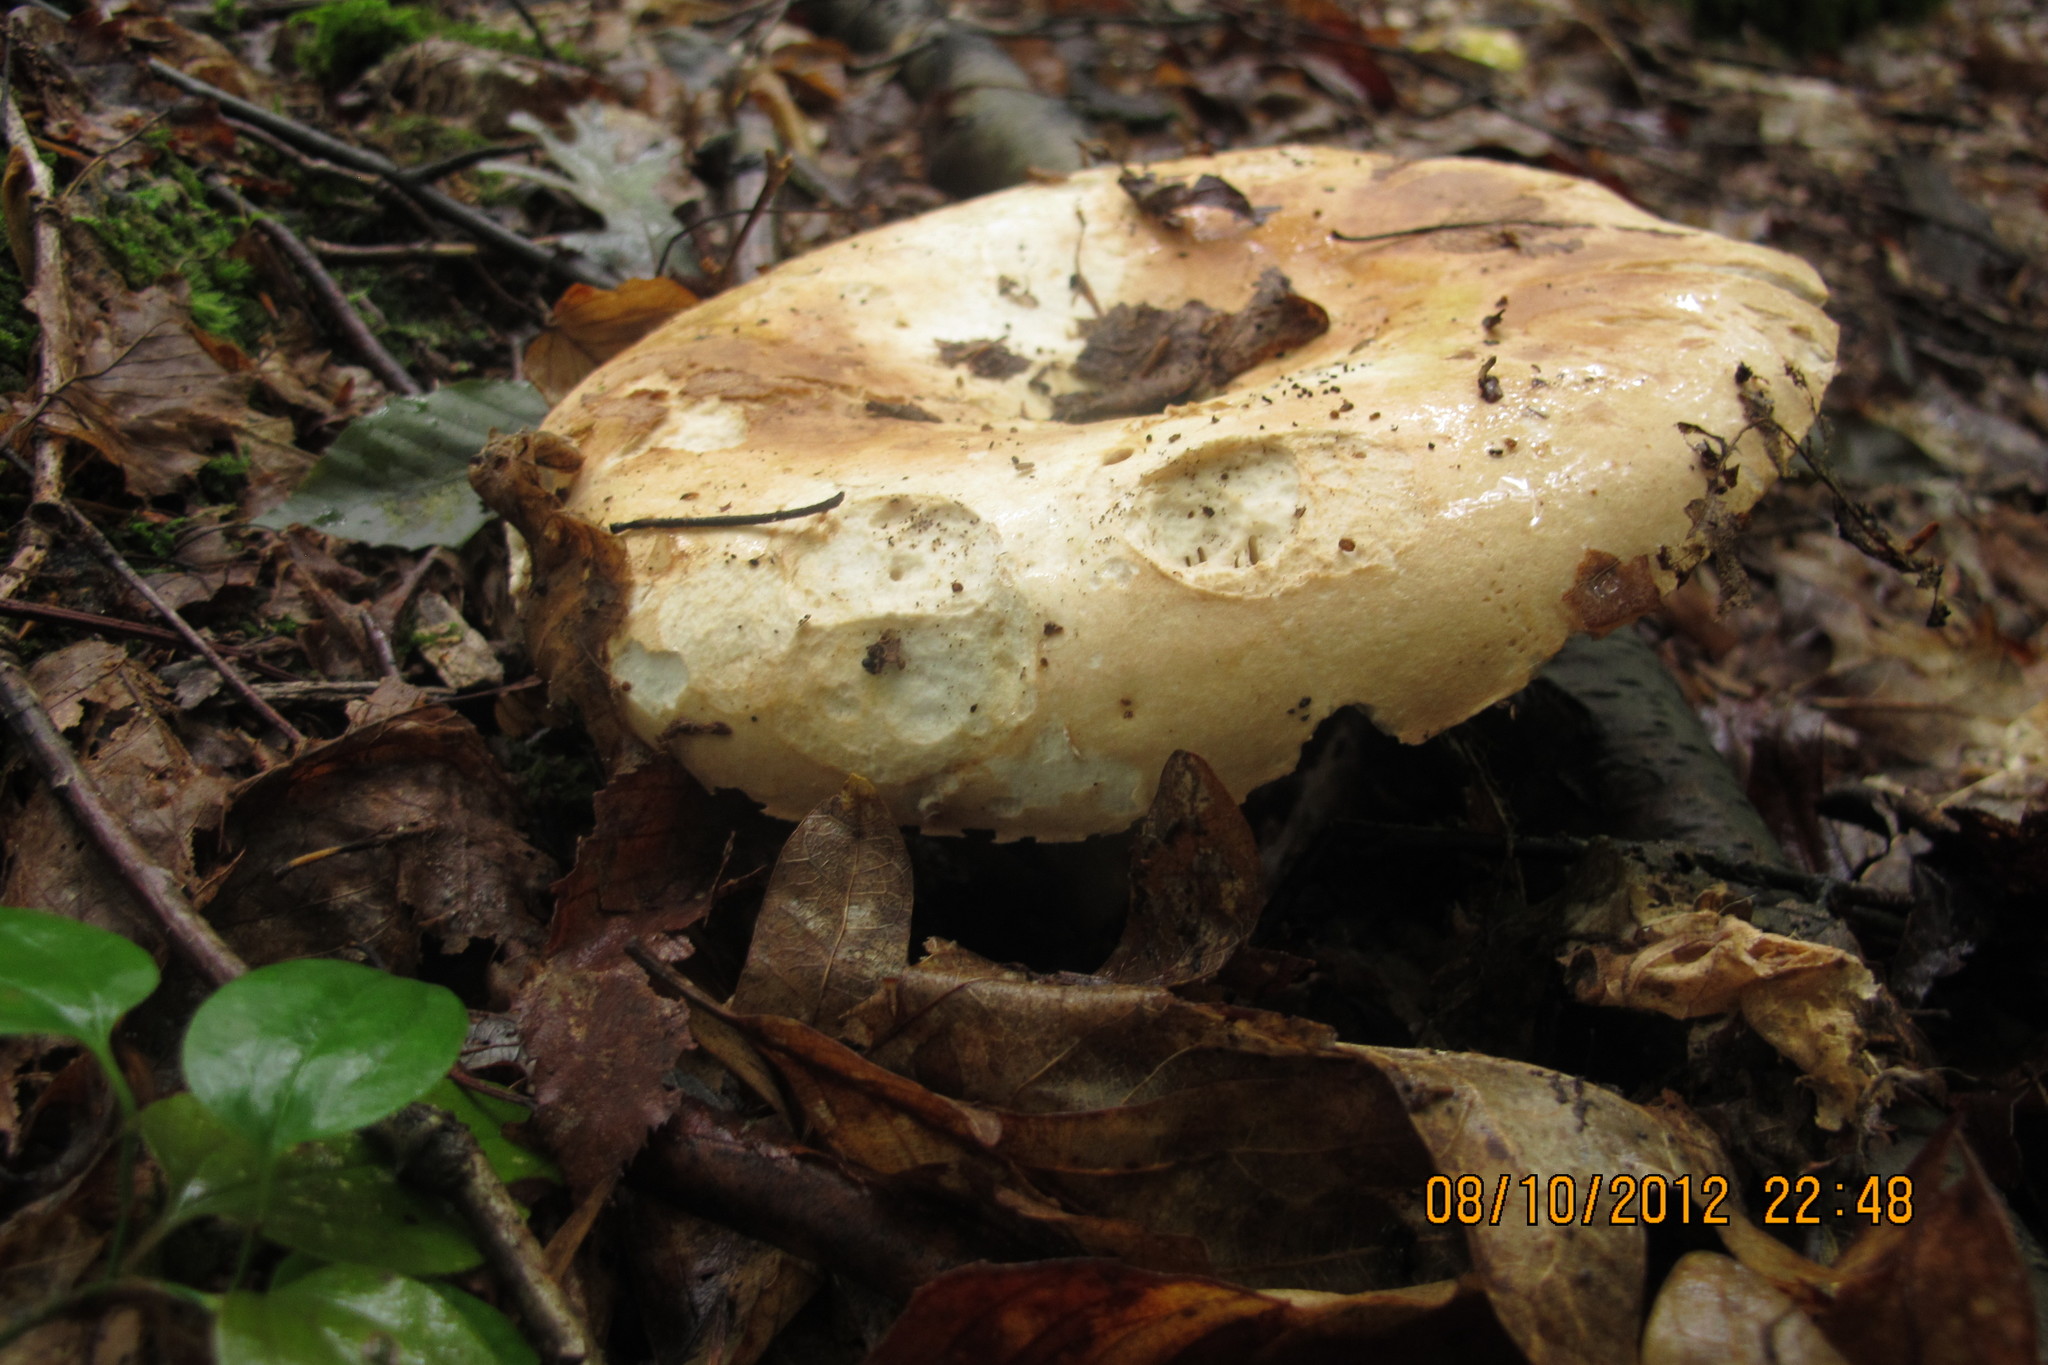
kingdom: Fungi
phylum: Basidiomycota
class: Agaricomycetes
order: Russulales
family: Russulaceae
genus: Russula
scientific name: Russula compacta
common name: Fishbiscuit russula
